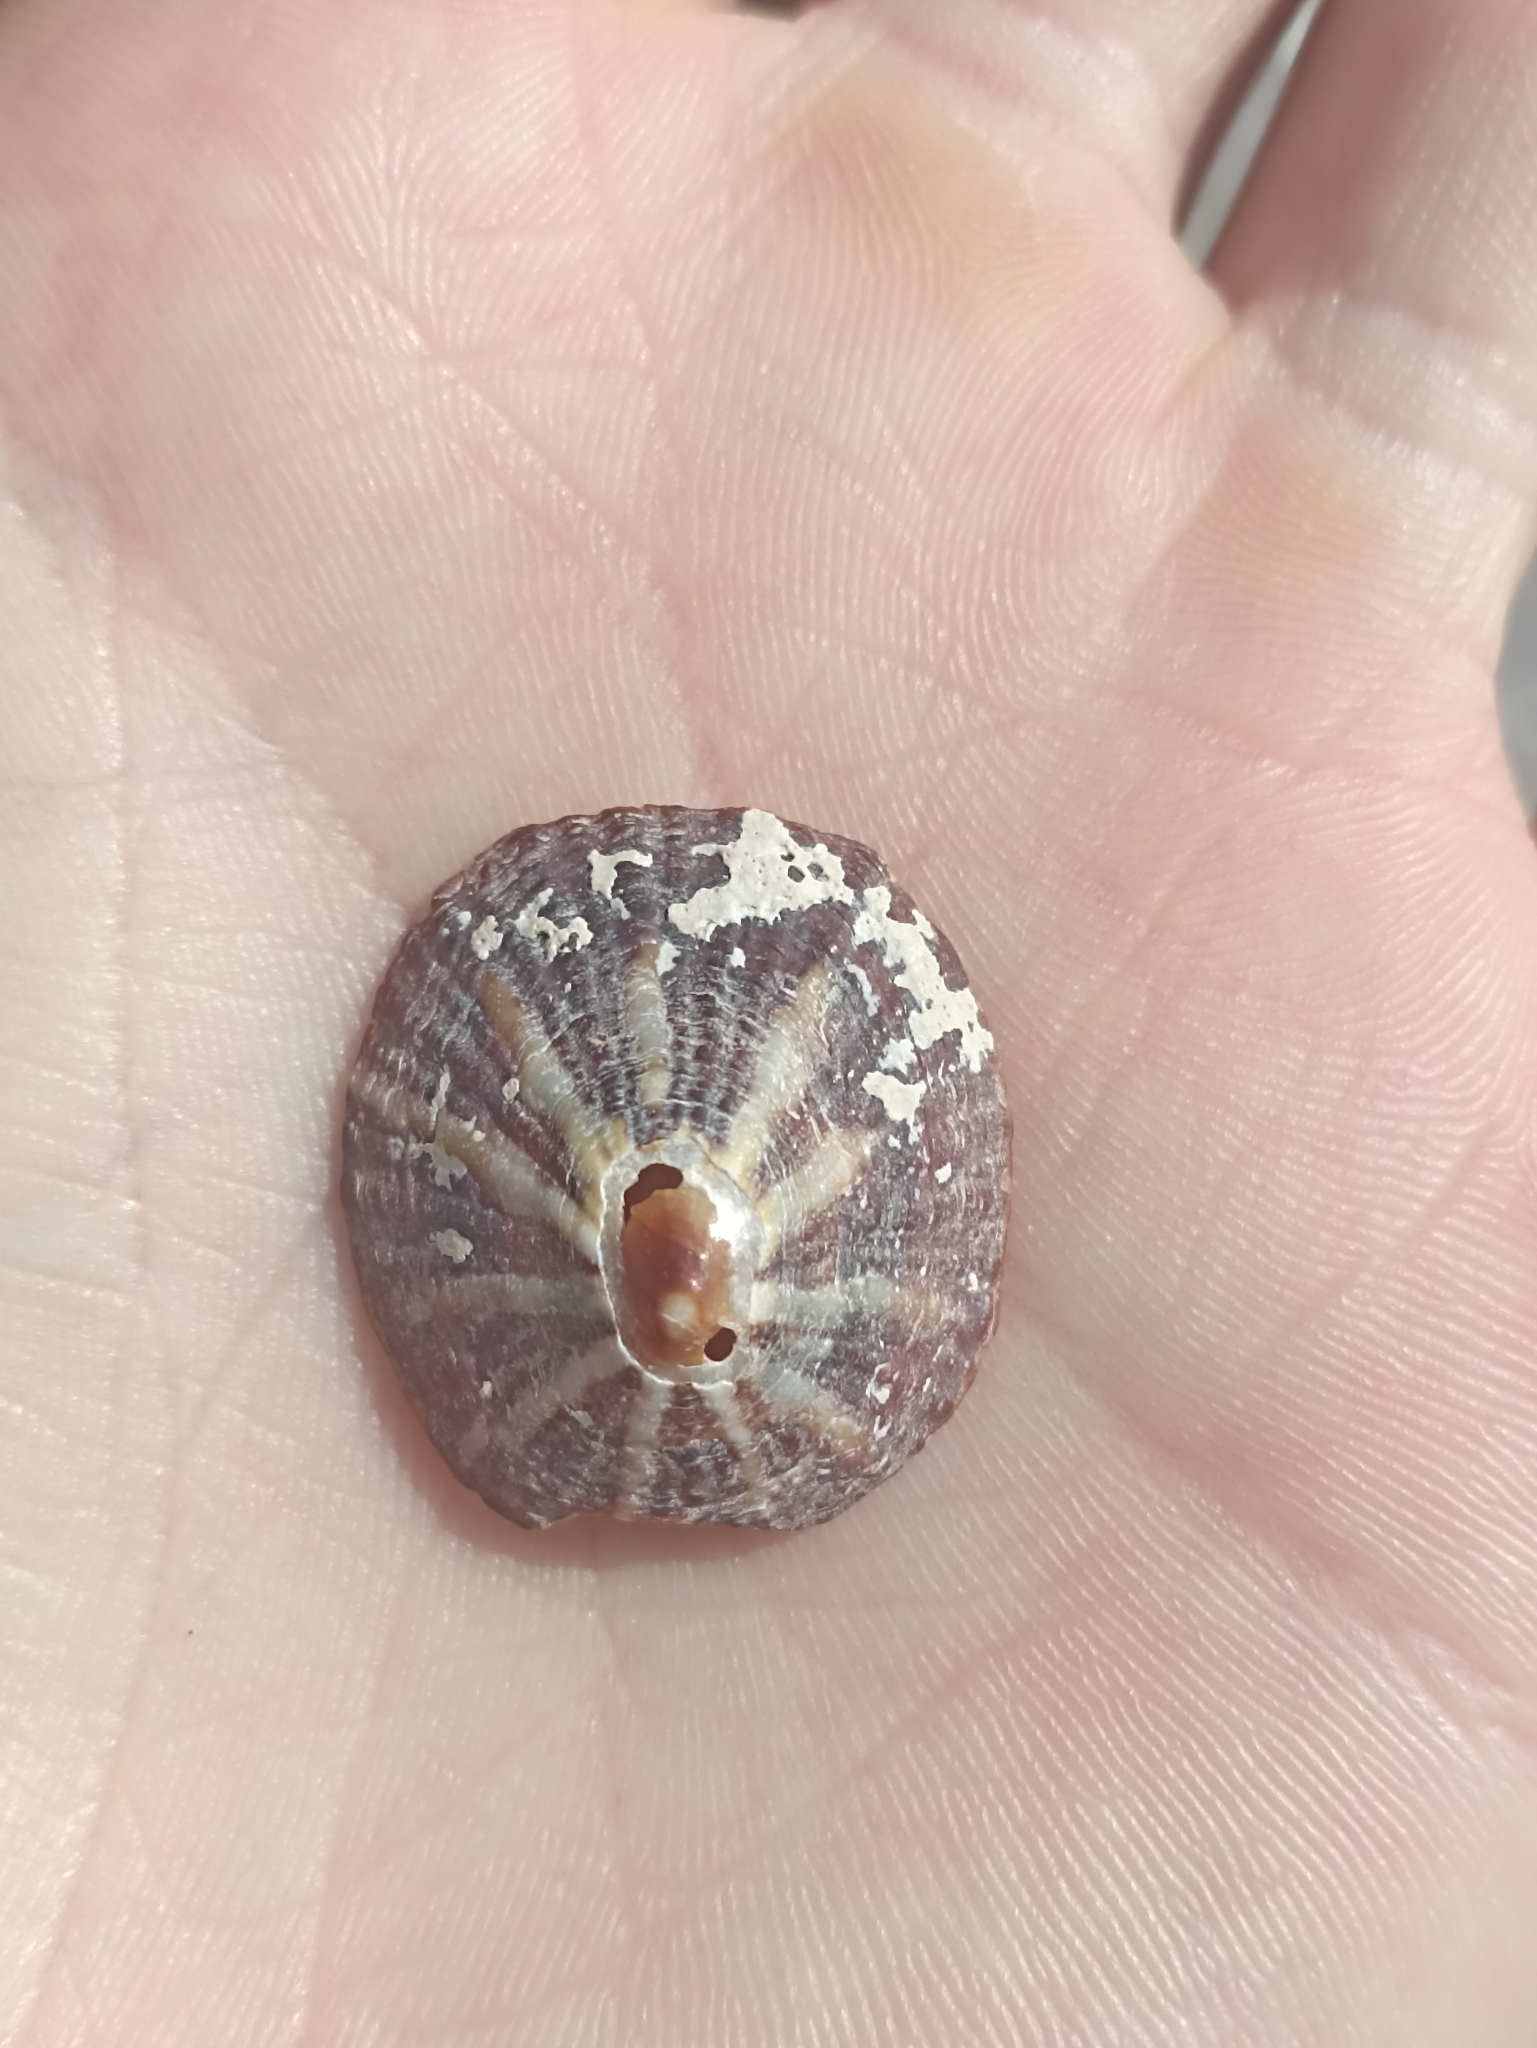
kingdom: Animalia
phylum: Mollusca
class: Gastropoda
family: Nacellidae
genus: Cellana
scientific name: Cellana stellifera
